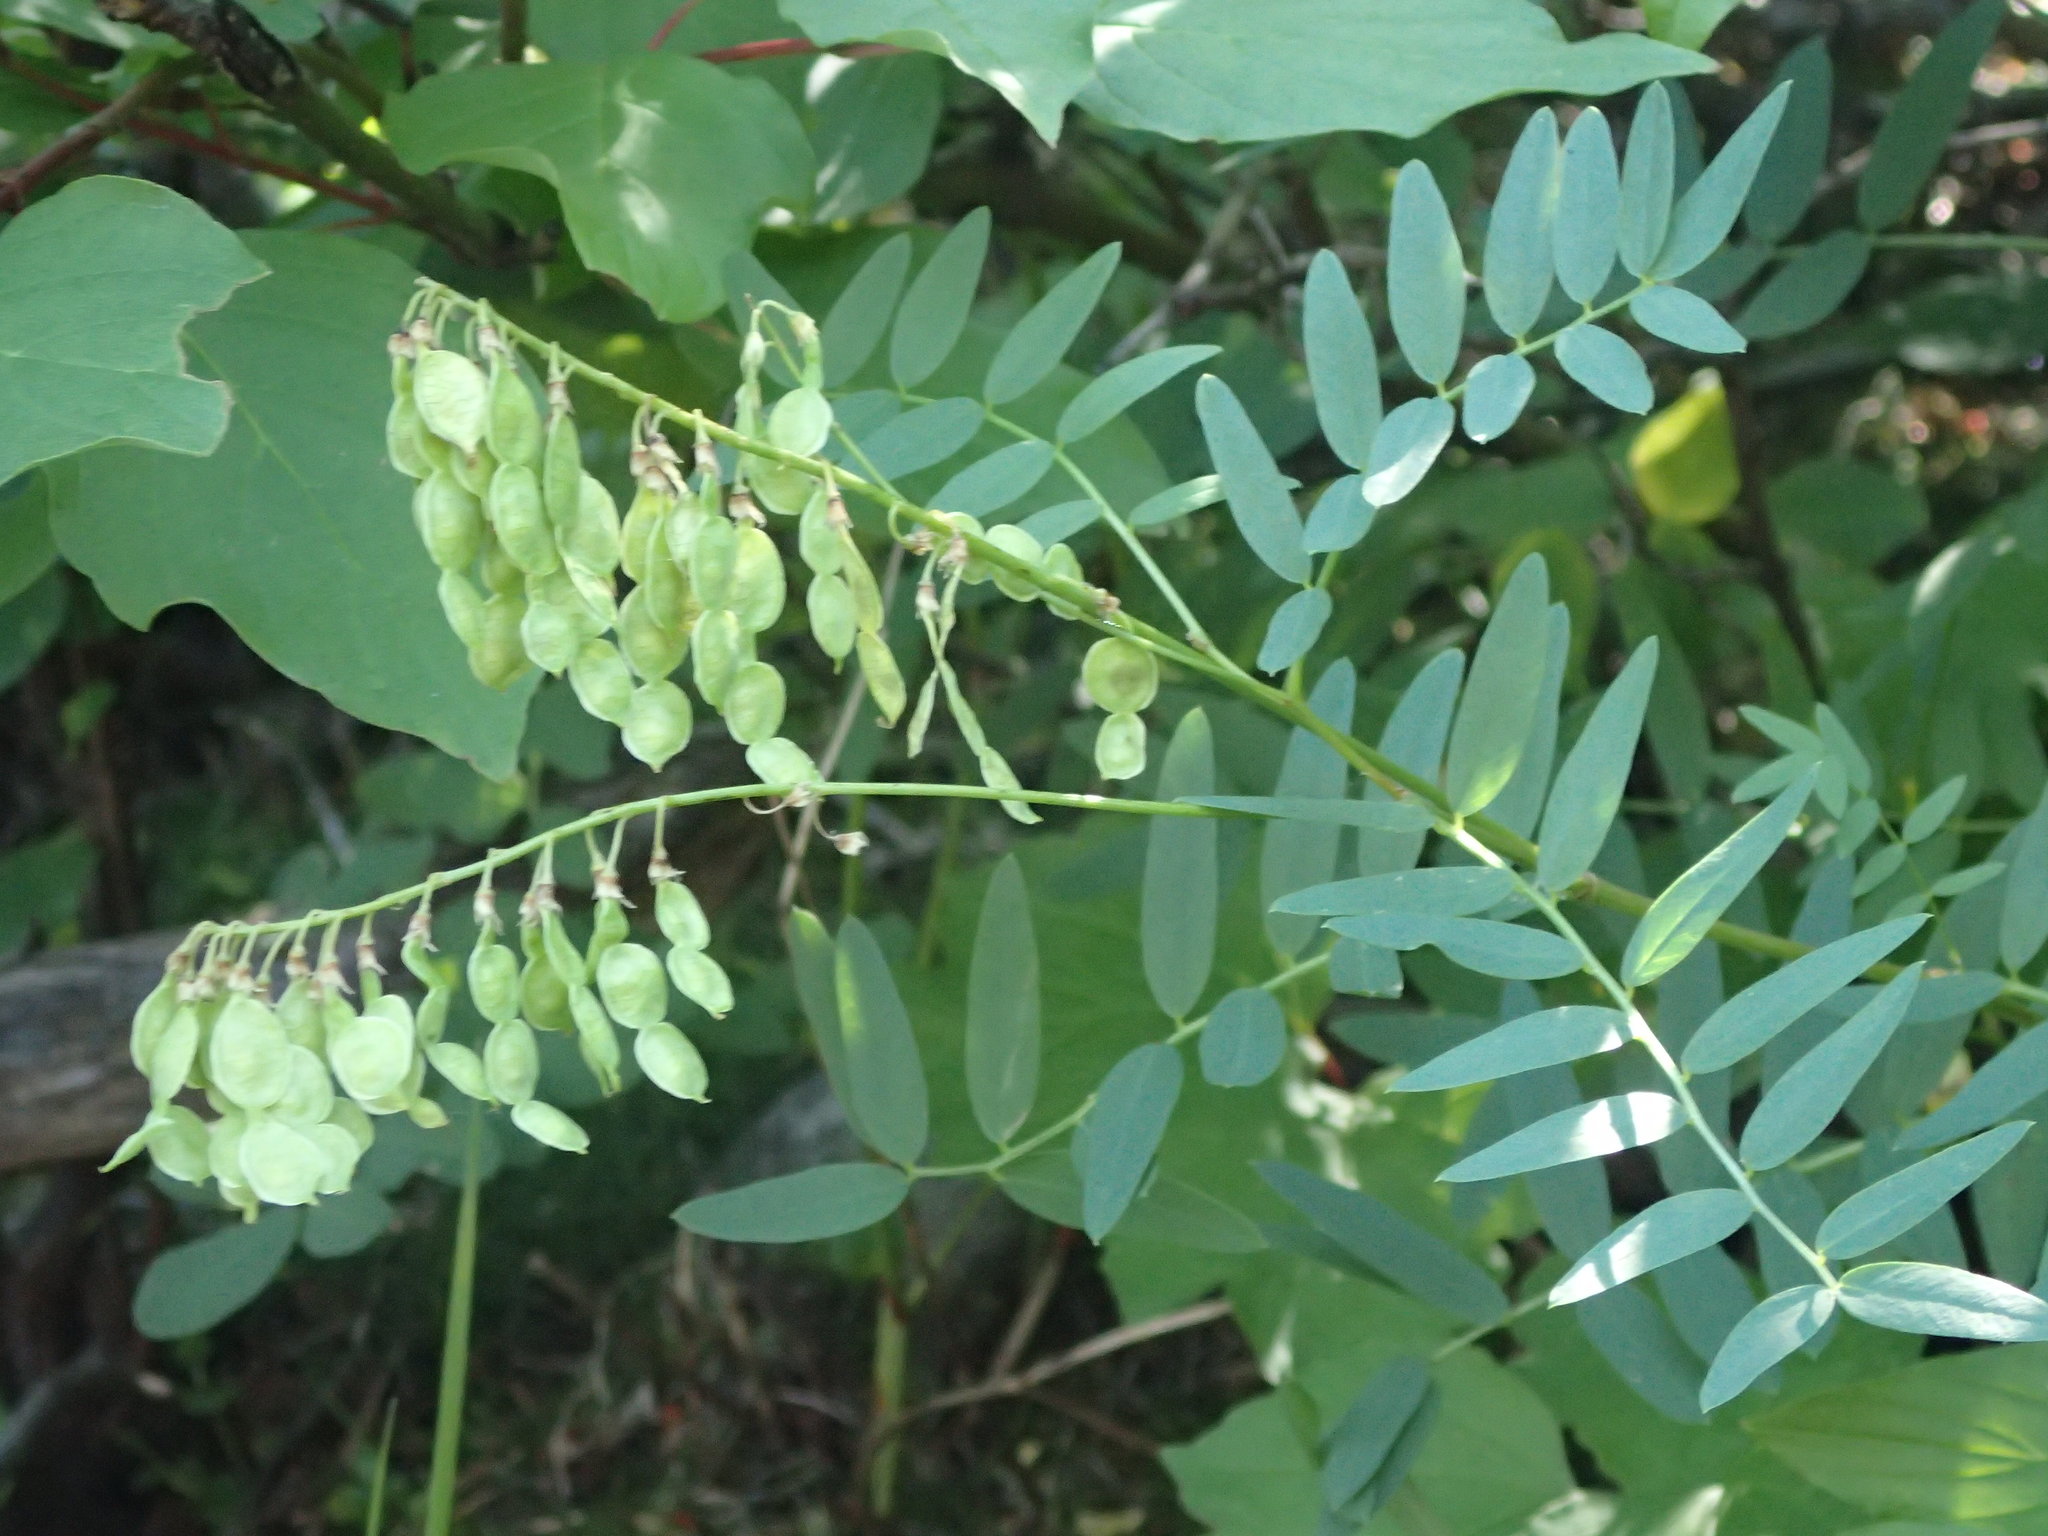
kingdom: Plantae
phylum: Tracheophyta
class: Magnoliopsida
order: Fabales
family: Fabaceae
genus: Hedysarum
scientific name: Hedysarum sulphurescens
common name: Sulphur hedysarum
